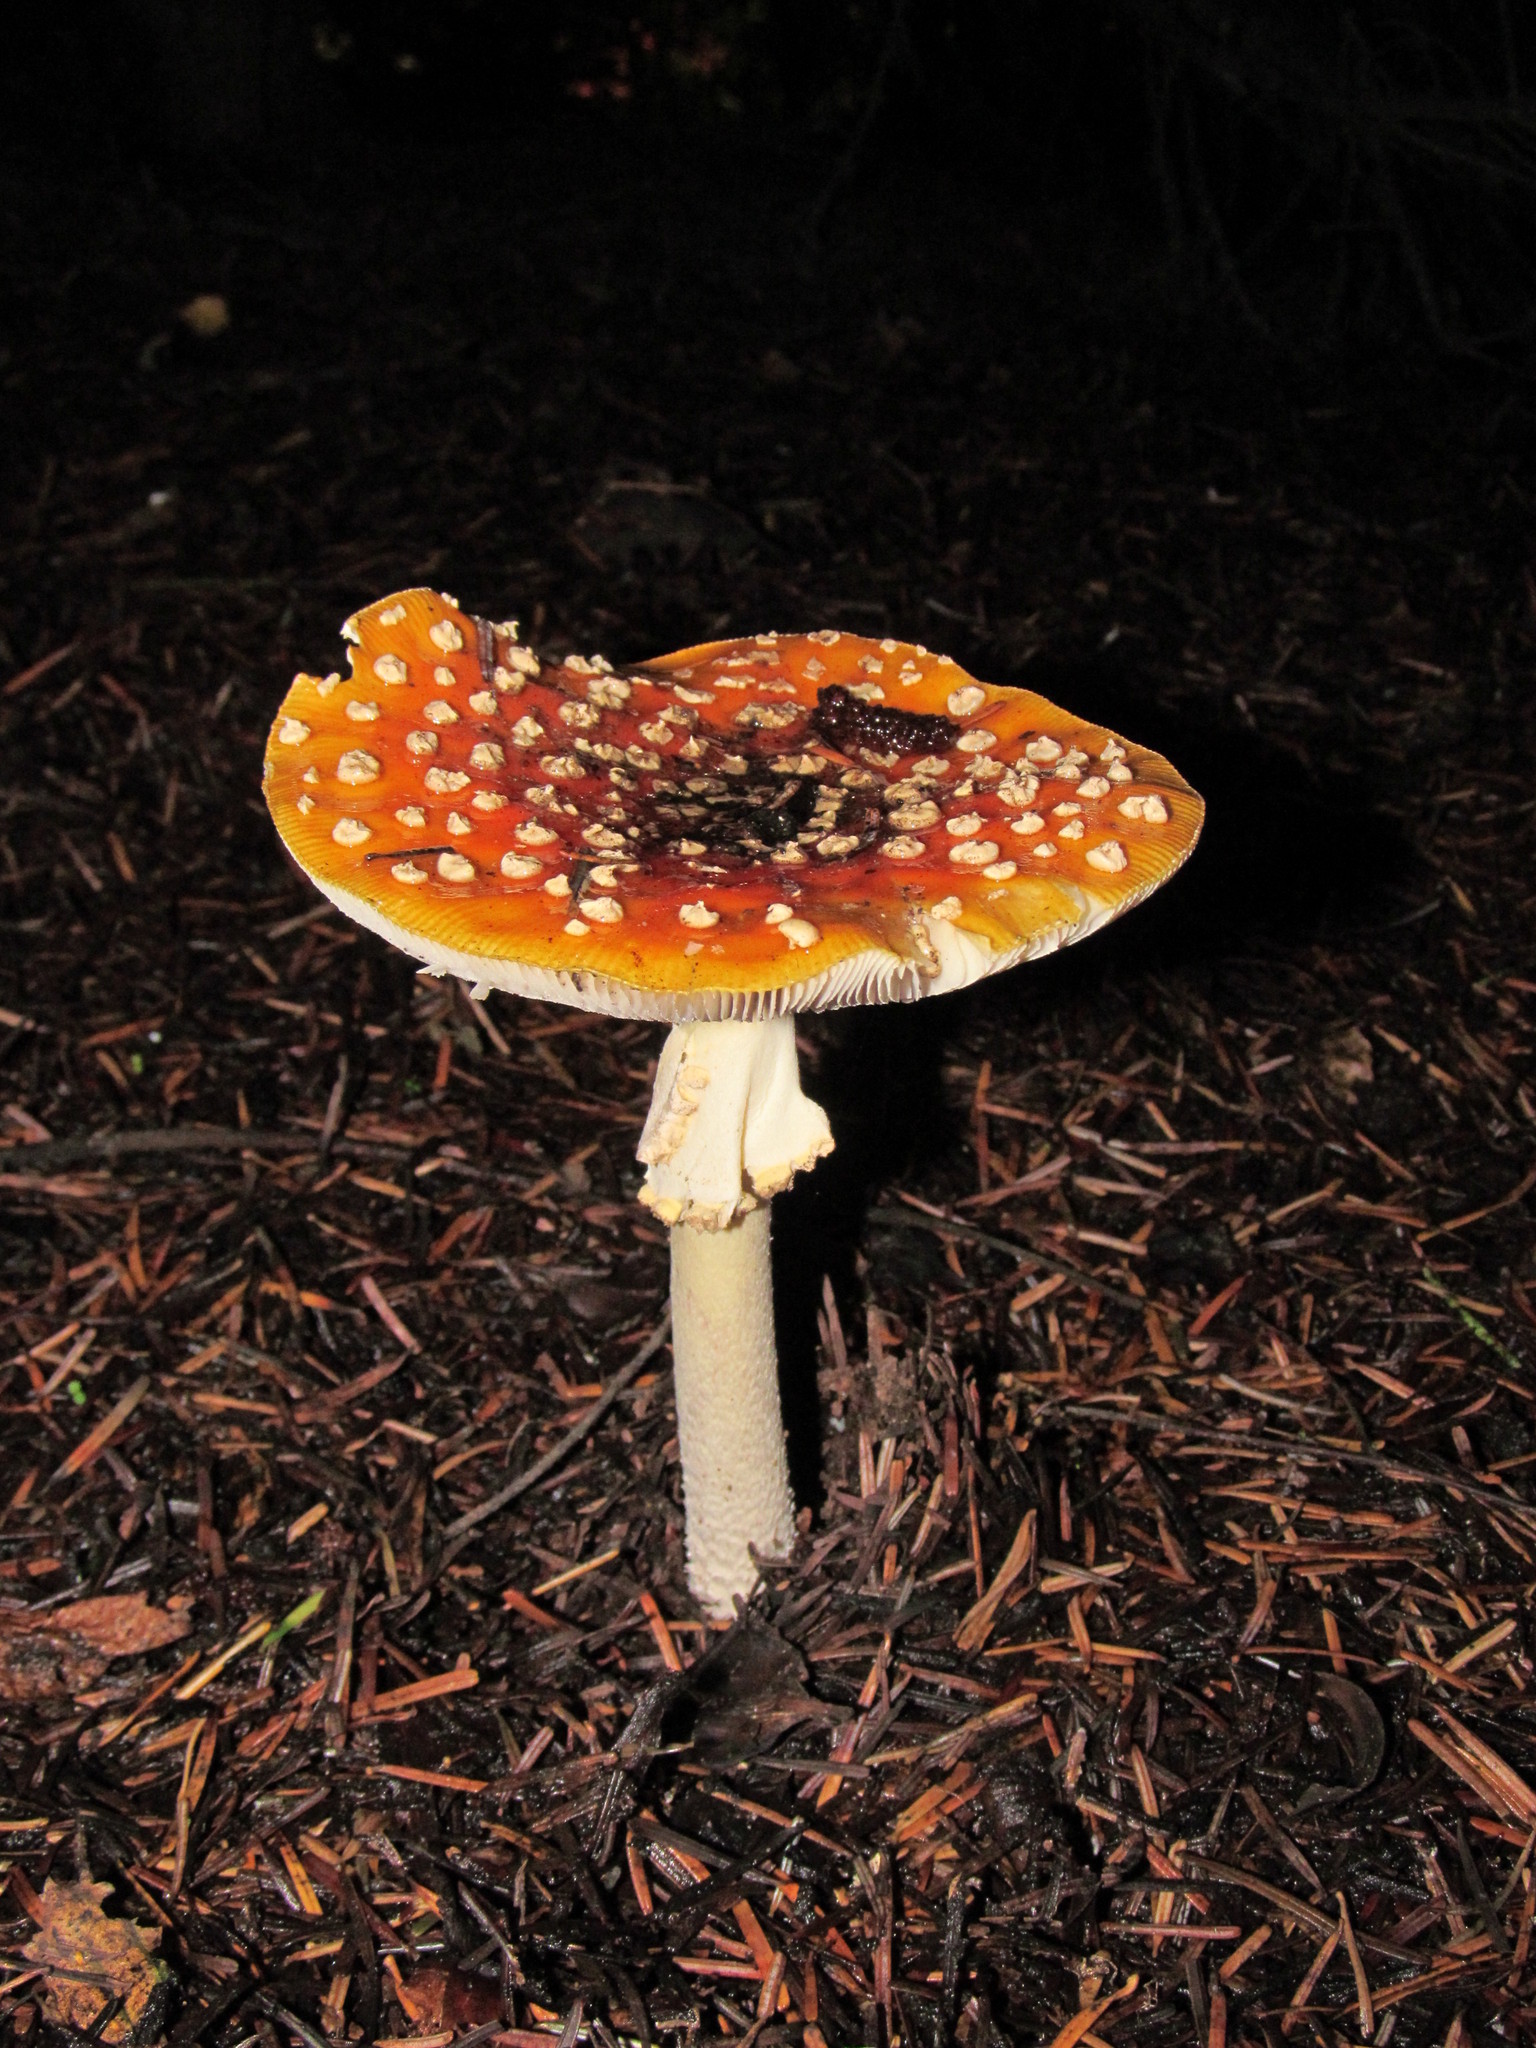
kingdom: Fungi
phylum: Basidiomycota
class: Agaricomycetes
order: Agaricales
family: Amanitaceae
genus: Amanita
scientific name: Amanita muscaria
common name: Fly agaric
